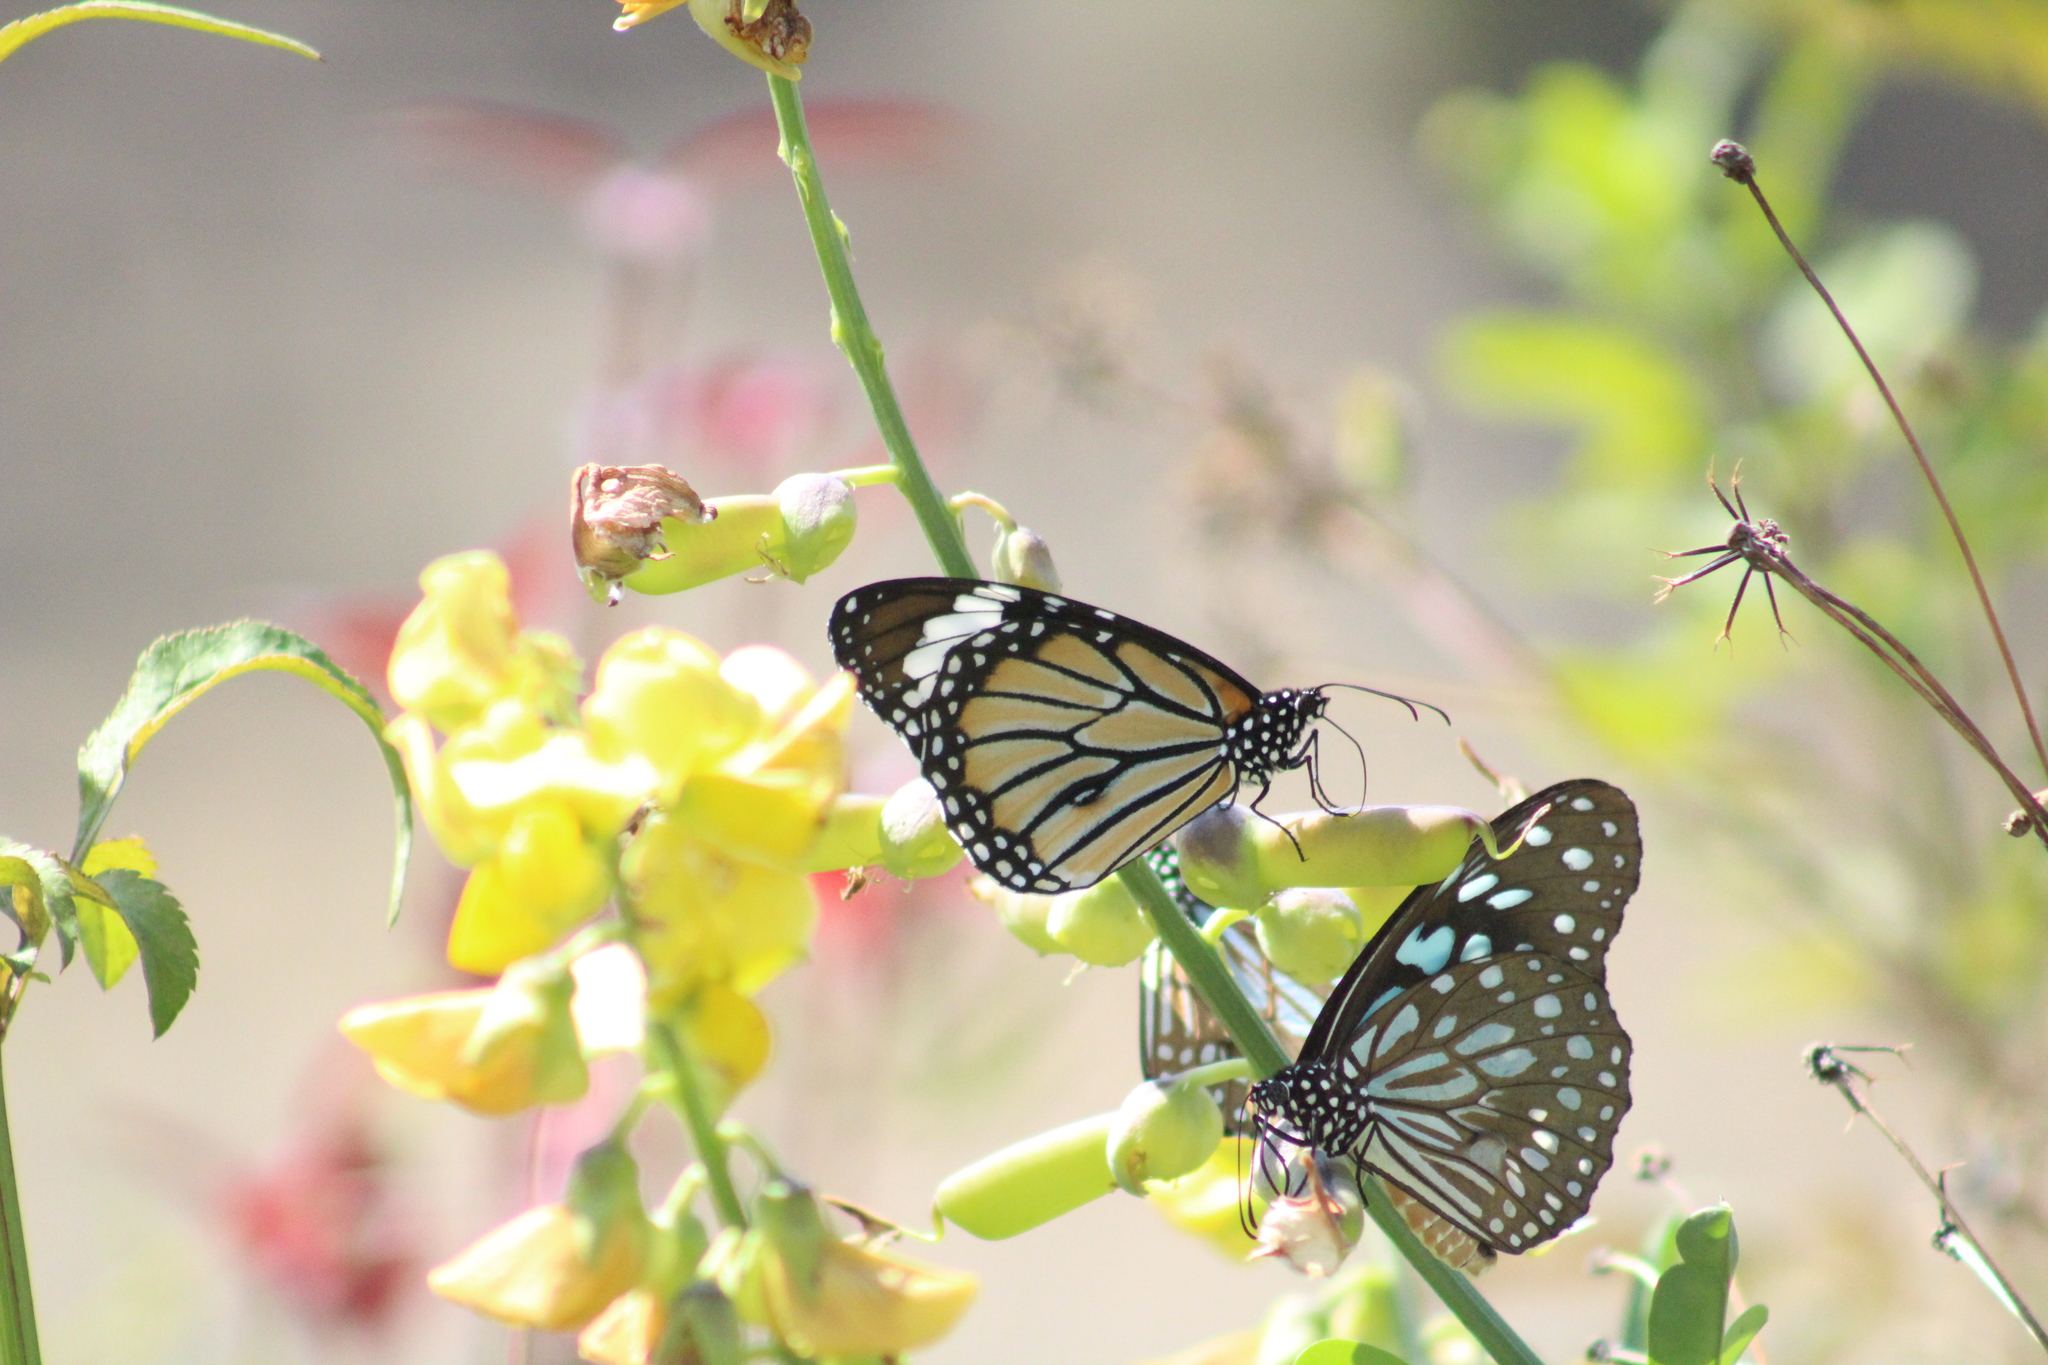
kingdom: Animalia
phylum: Arthropoda
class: Insecta
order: Lepidoptera
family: Nymphalidae
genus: Danaus
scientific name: Danaus genutia
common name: Common tiger butterfly
